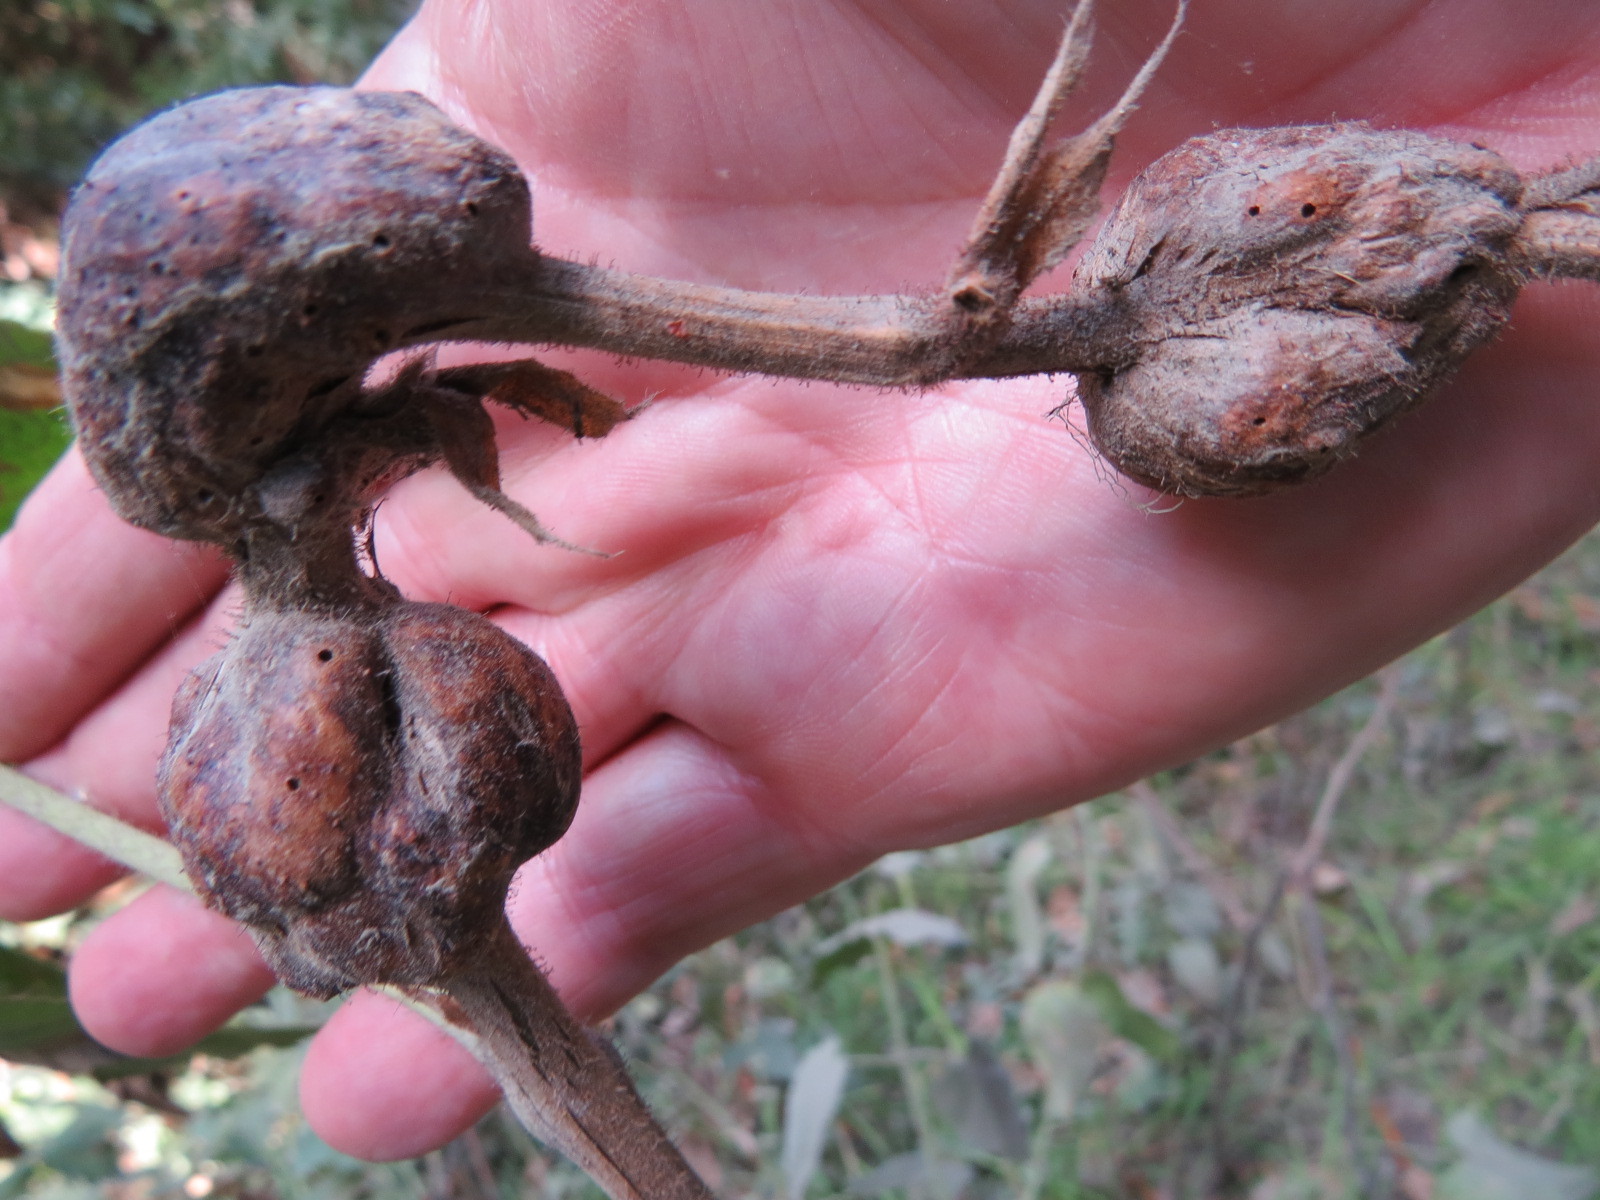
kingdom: Animalia
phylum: Arthropoda
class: Insecta
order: Hymenoptera
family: Cynipidae
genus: Diastrophus
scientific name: Diastrophus
